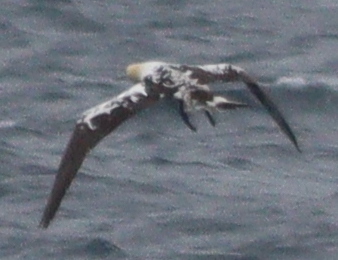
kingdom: Animalia
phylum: Chordata
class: Aves
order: Suliformes
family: Sulidae
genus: Morus
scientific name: Morus bassanus
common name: Northern gannet
